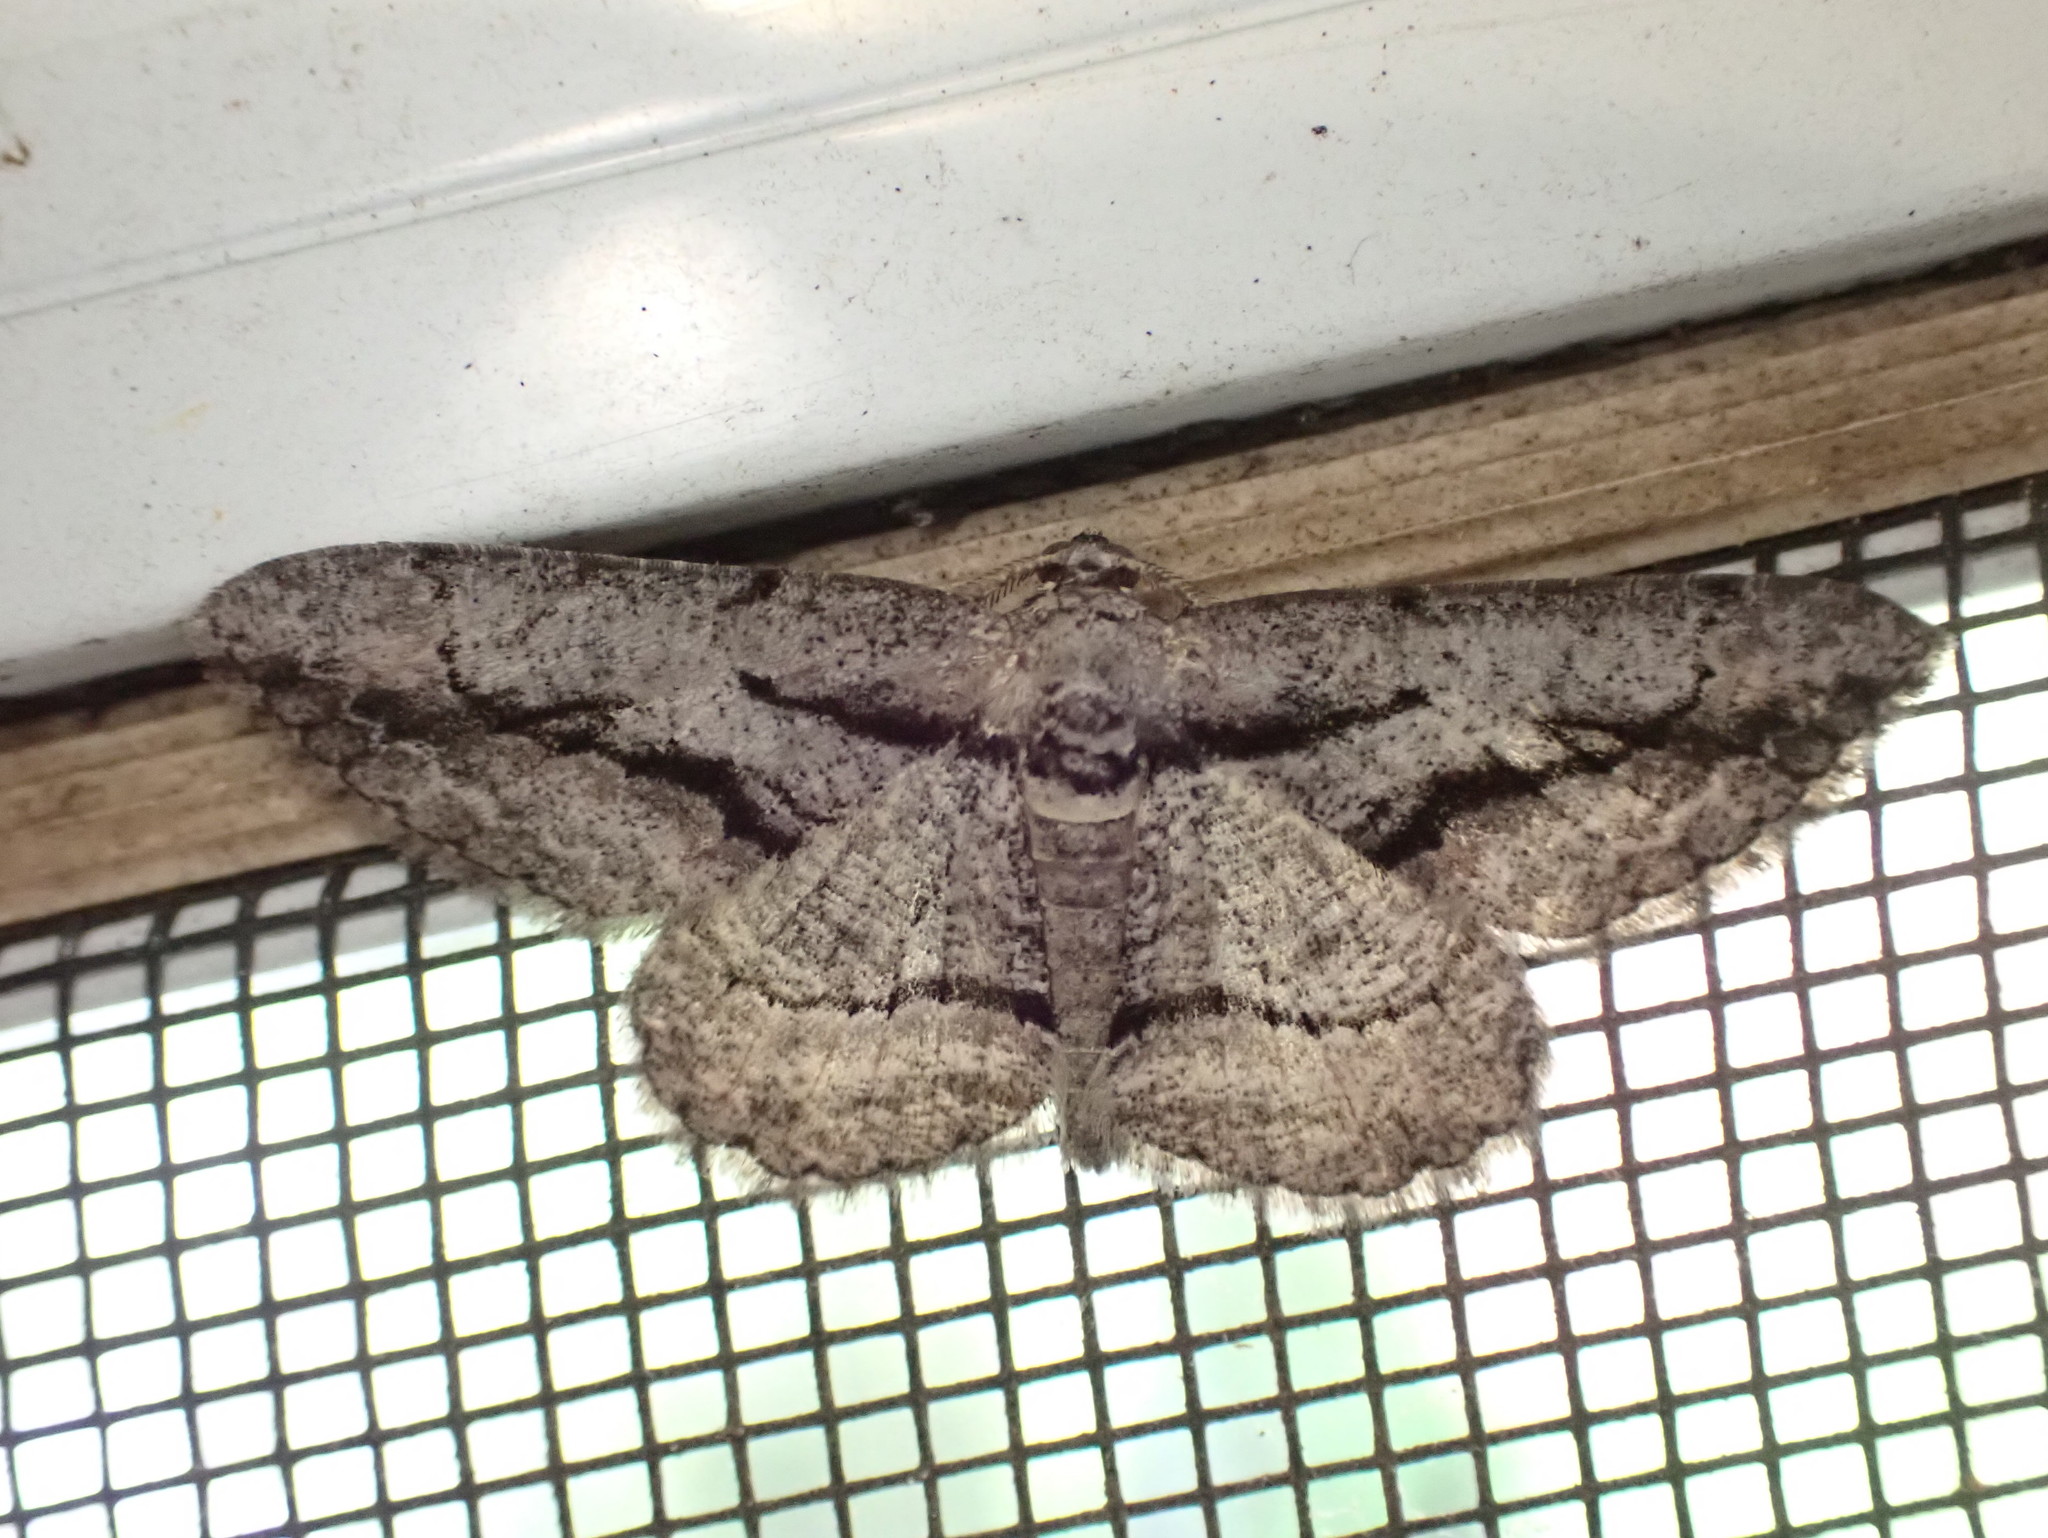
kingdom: Animalia
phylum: Arthropoda
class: Insecta
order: Lepidoptera
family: Geometridae
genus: Anavitrinella
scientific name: Anavitrinella pampinaria
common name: Common gray
